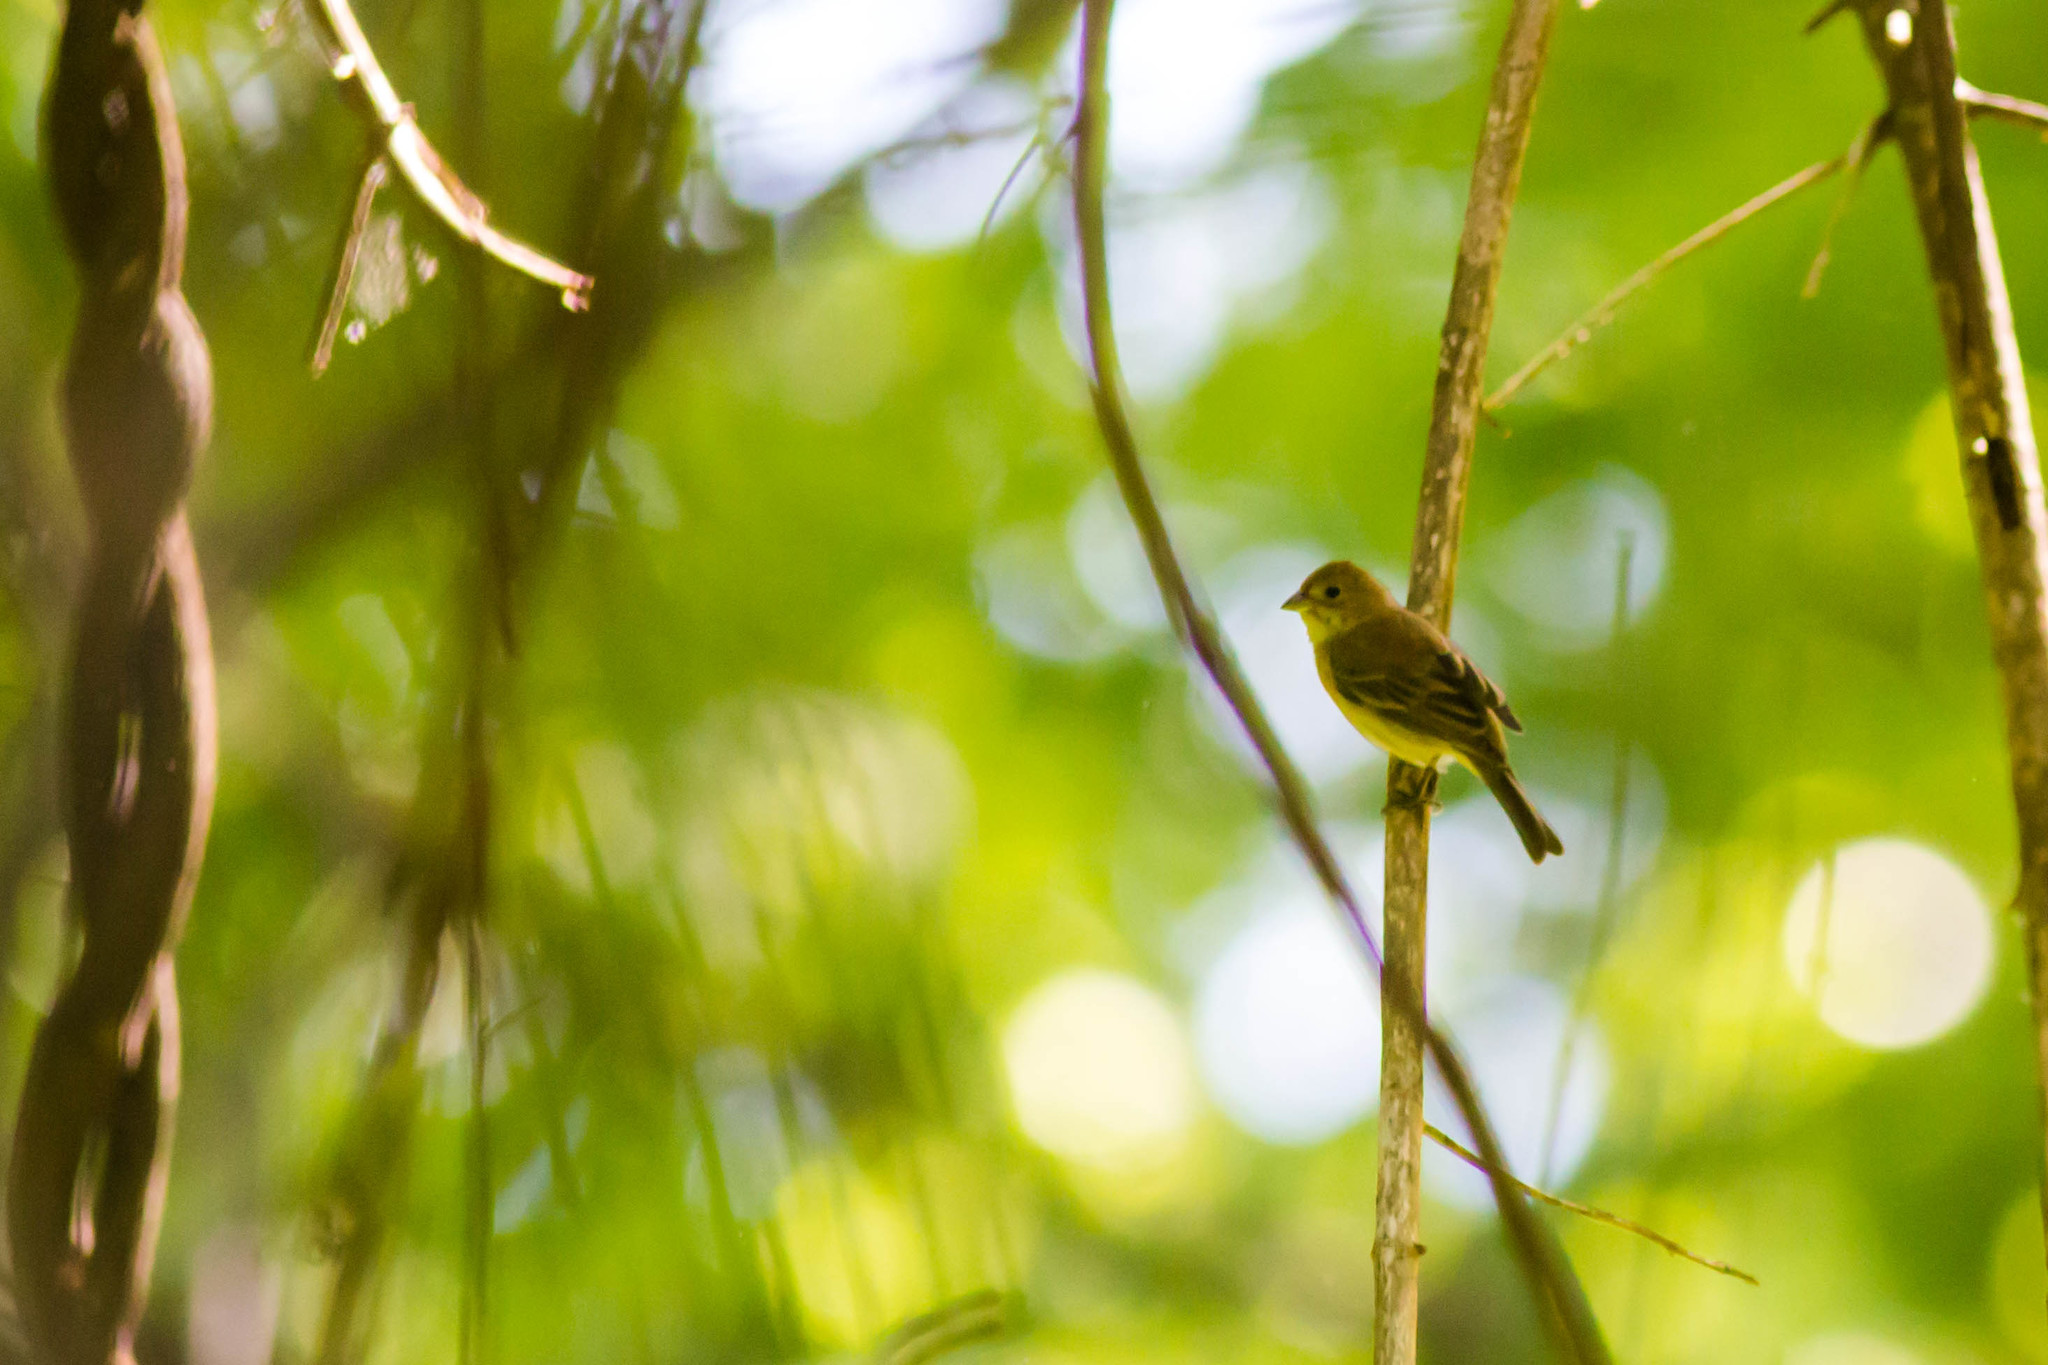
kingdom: Animalia
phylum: Chordata
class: Aves
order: Passeriformes
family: Cardinalidae
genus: Passerina
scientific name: Passerina cyanea
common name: Indigo bunting
